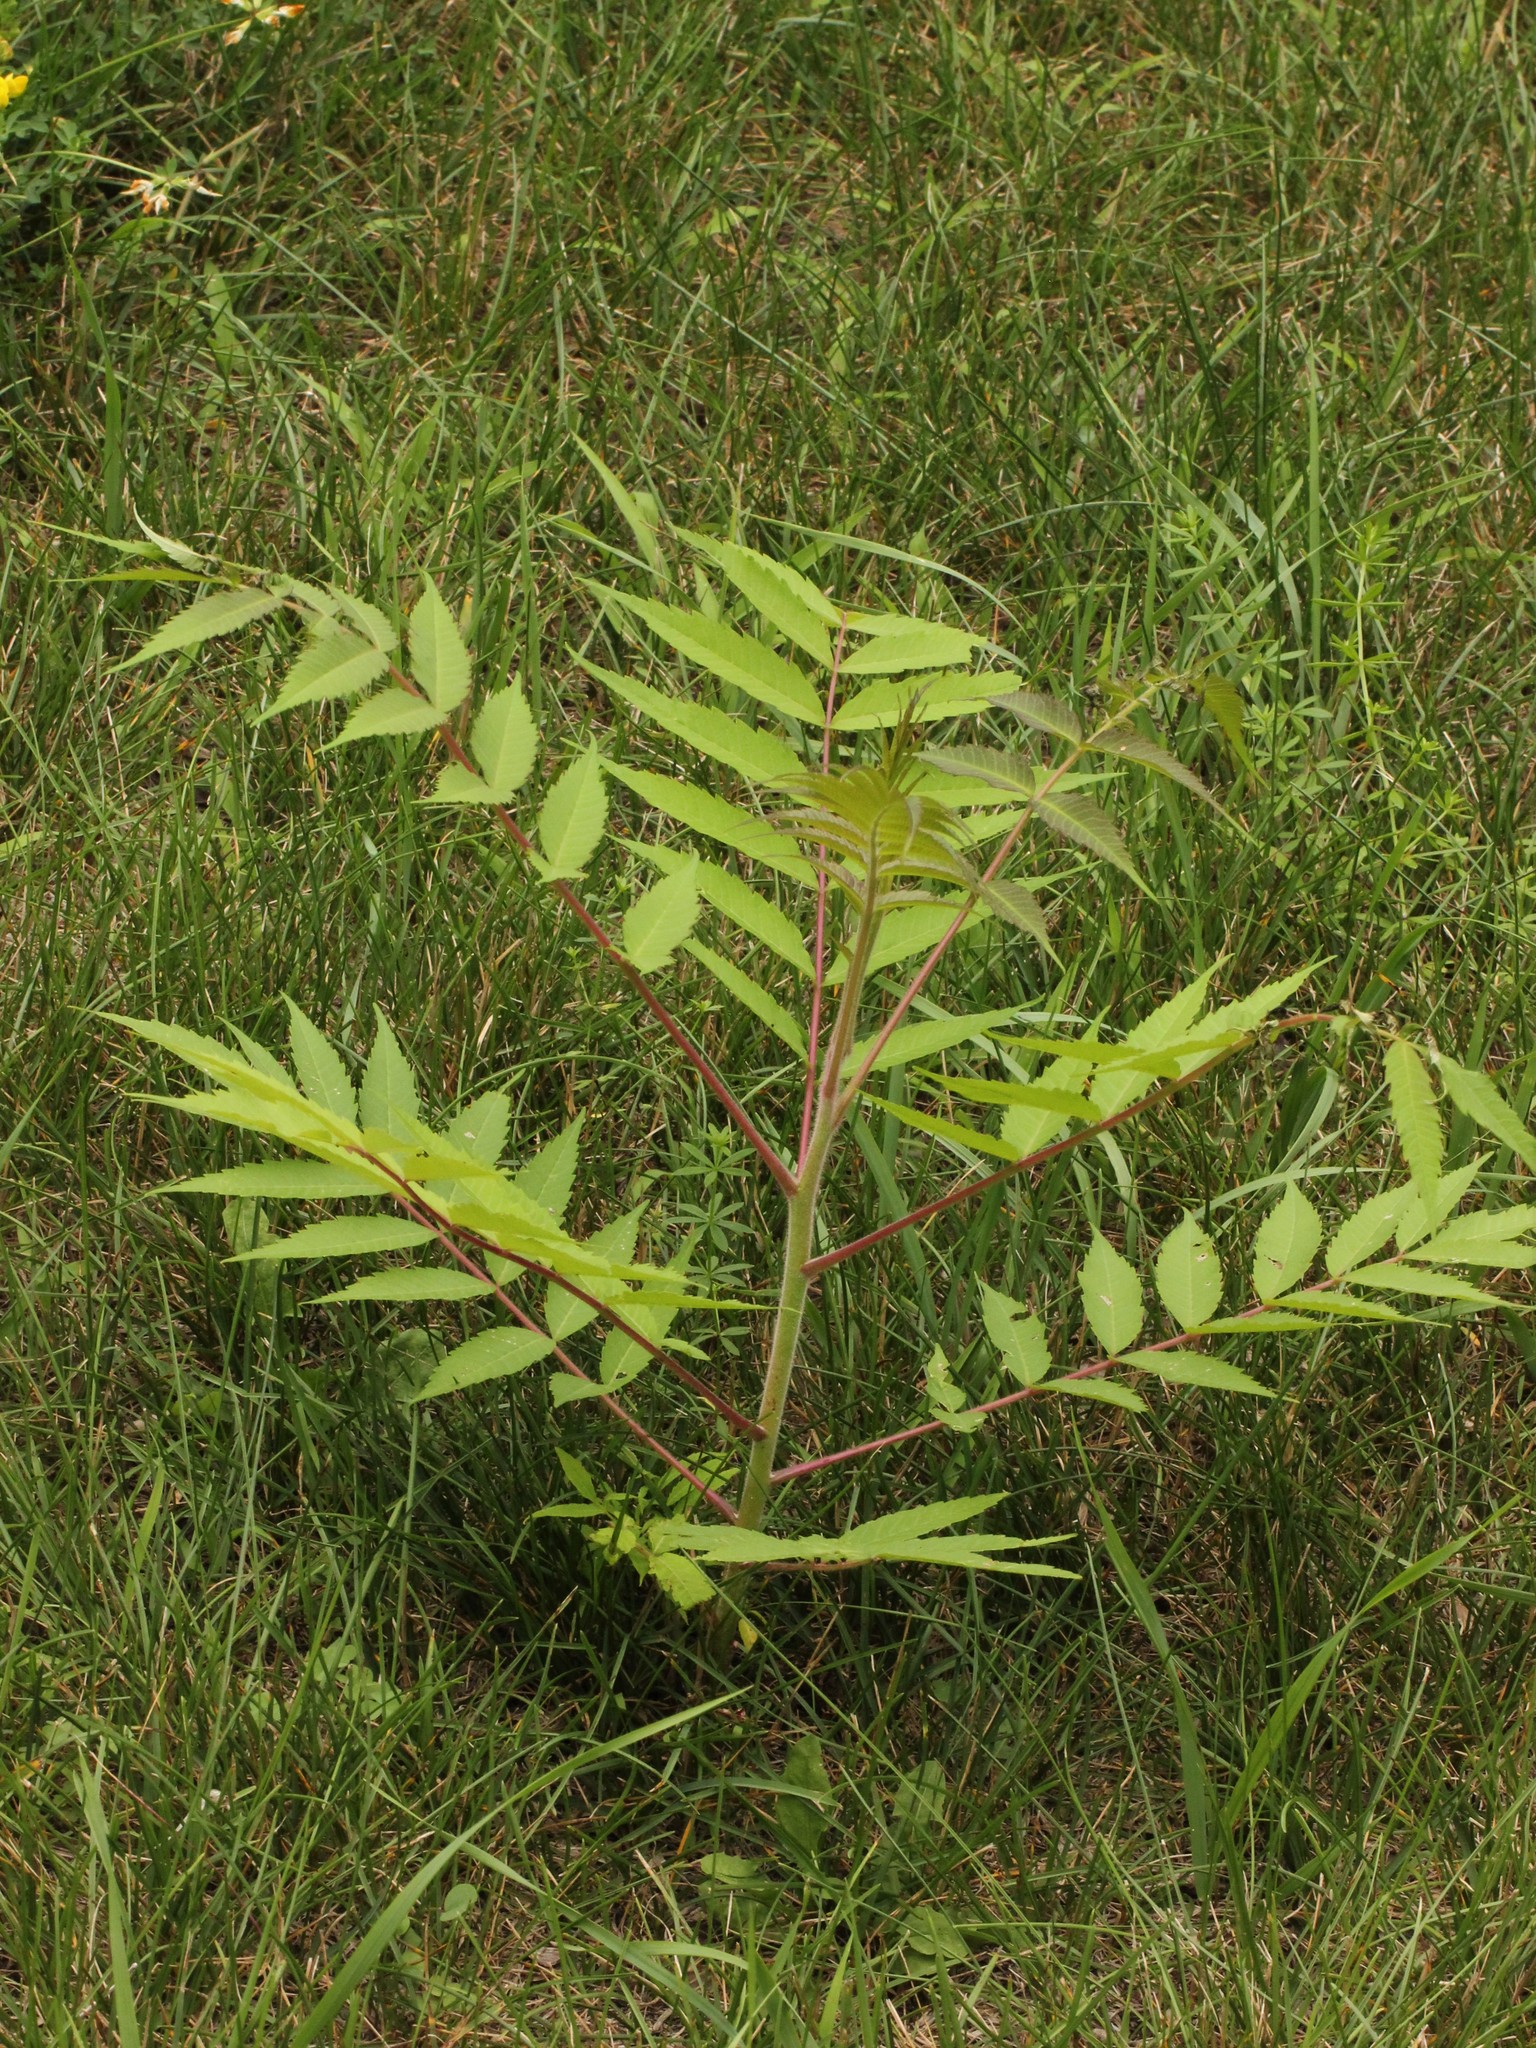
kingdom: Plantae
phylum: Tracheophyta
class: Magnoliopsida
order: Sapindales
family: Anacardiaceae
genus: Rhus
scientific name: Rhus typhina
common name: Staghorn sumac
